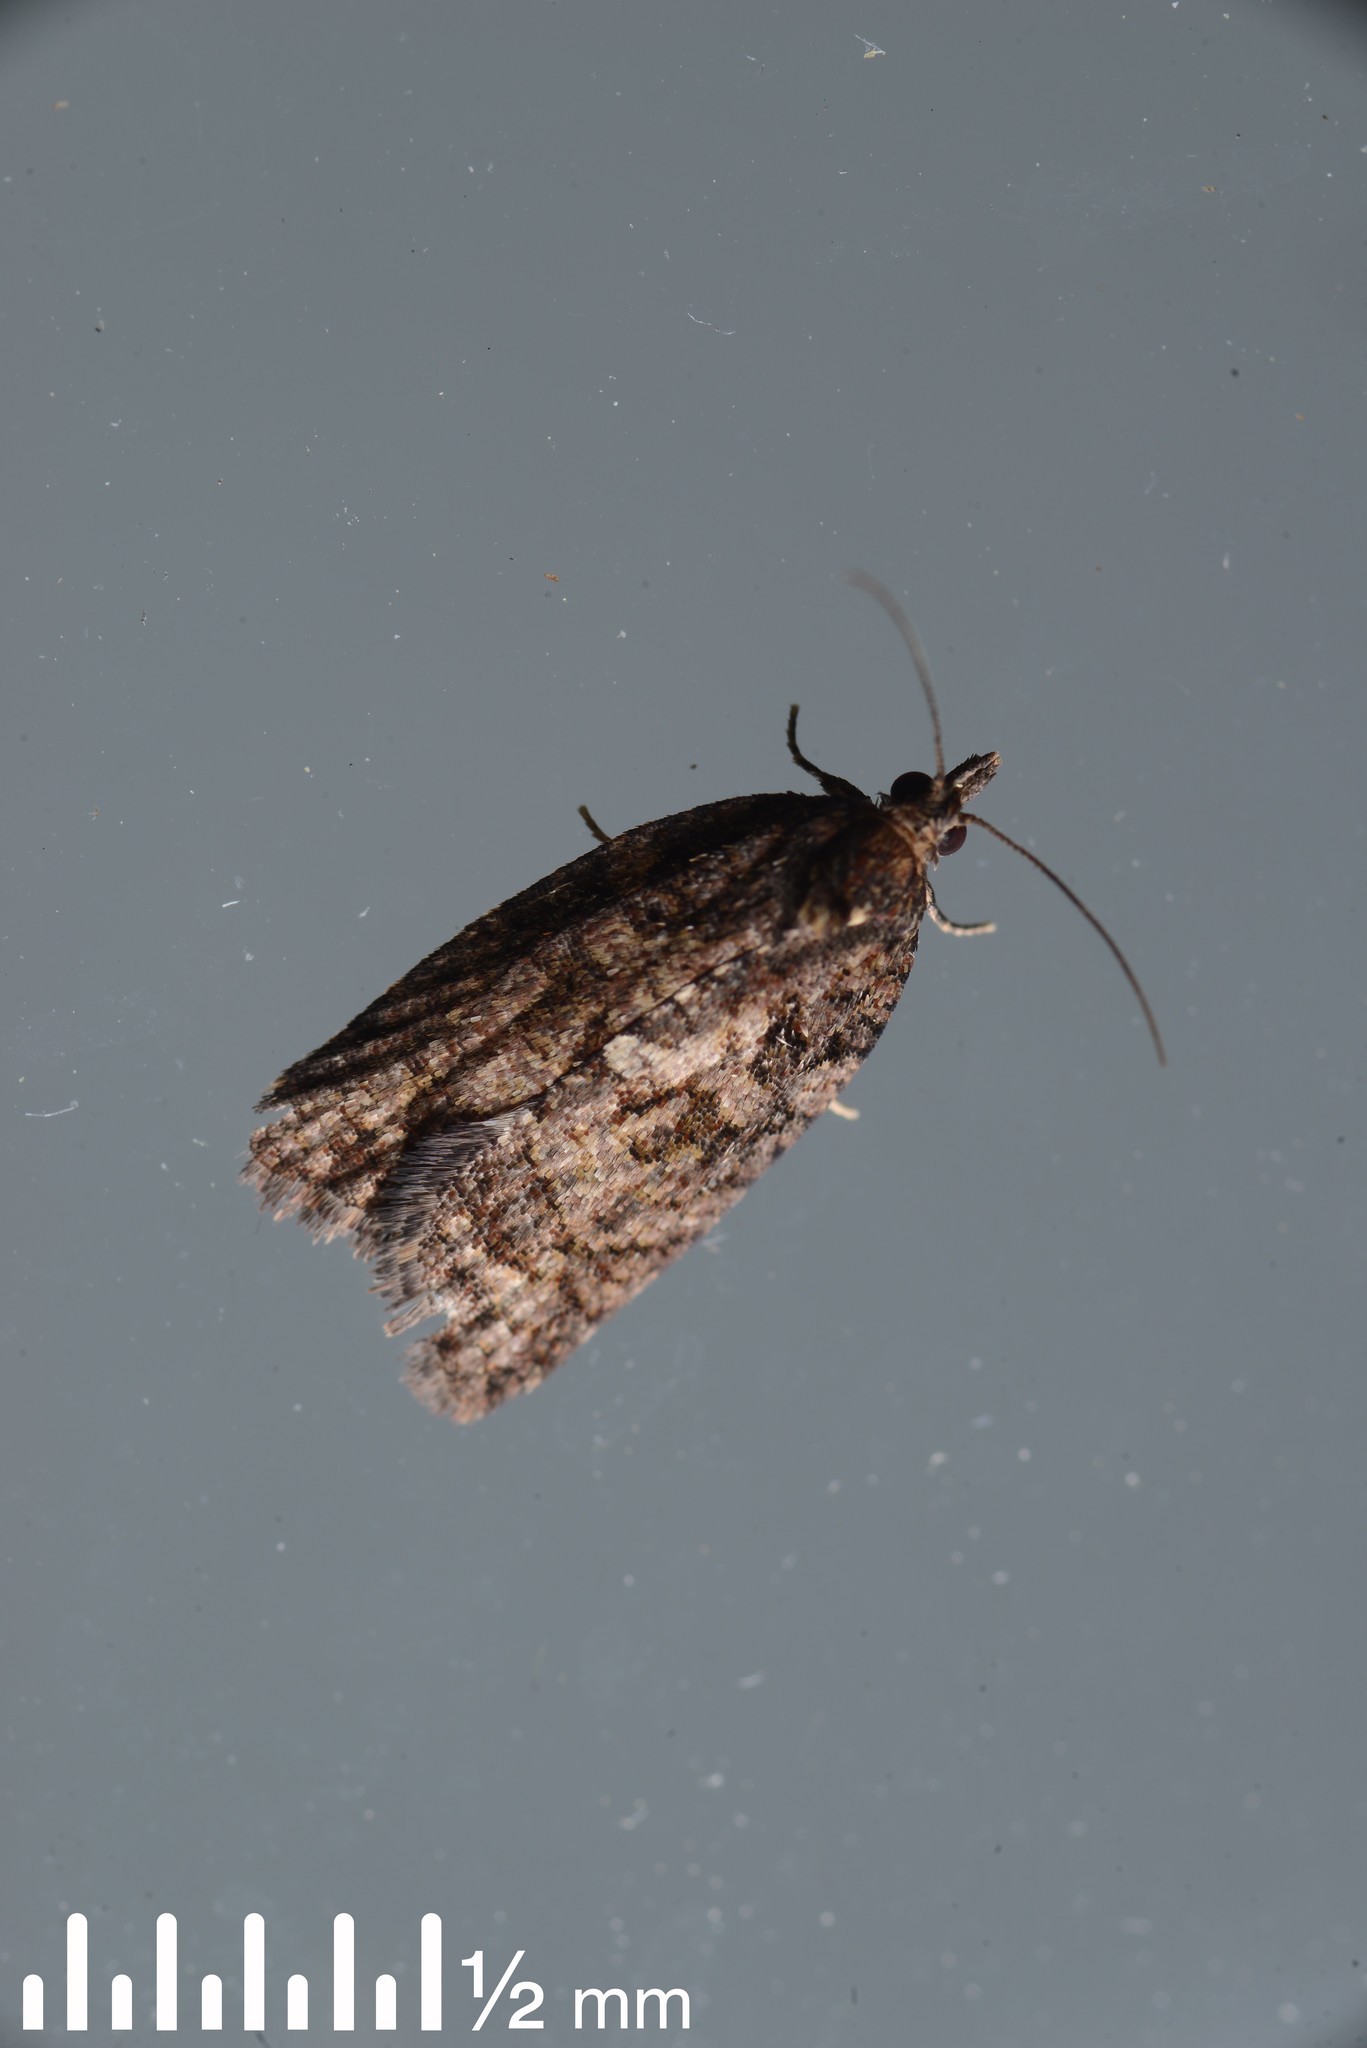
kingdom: Animalia
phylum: Arthropoda
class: Insecta
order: Lepidoptera
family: Tortricidae
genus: Capua
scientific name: Capua intractana
